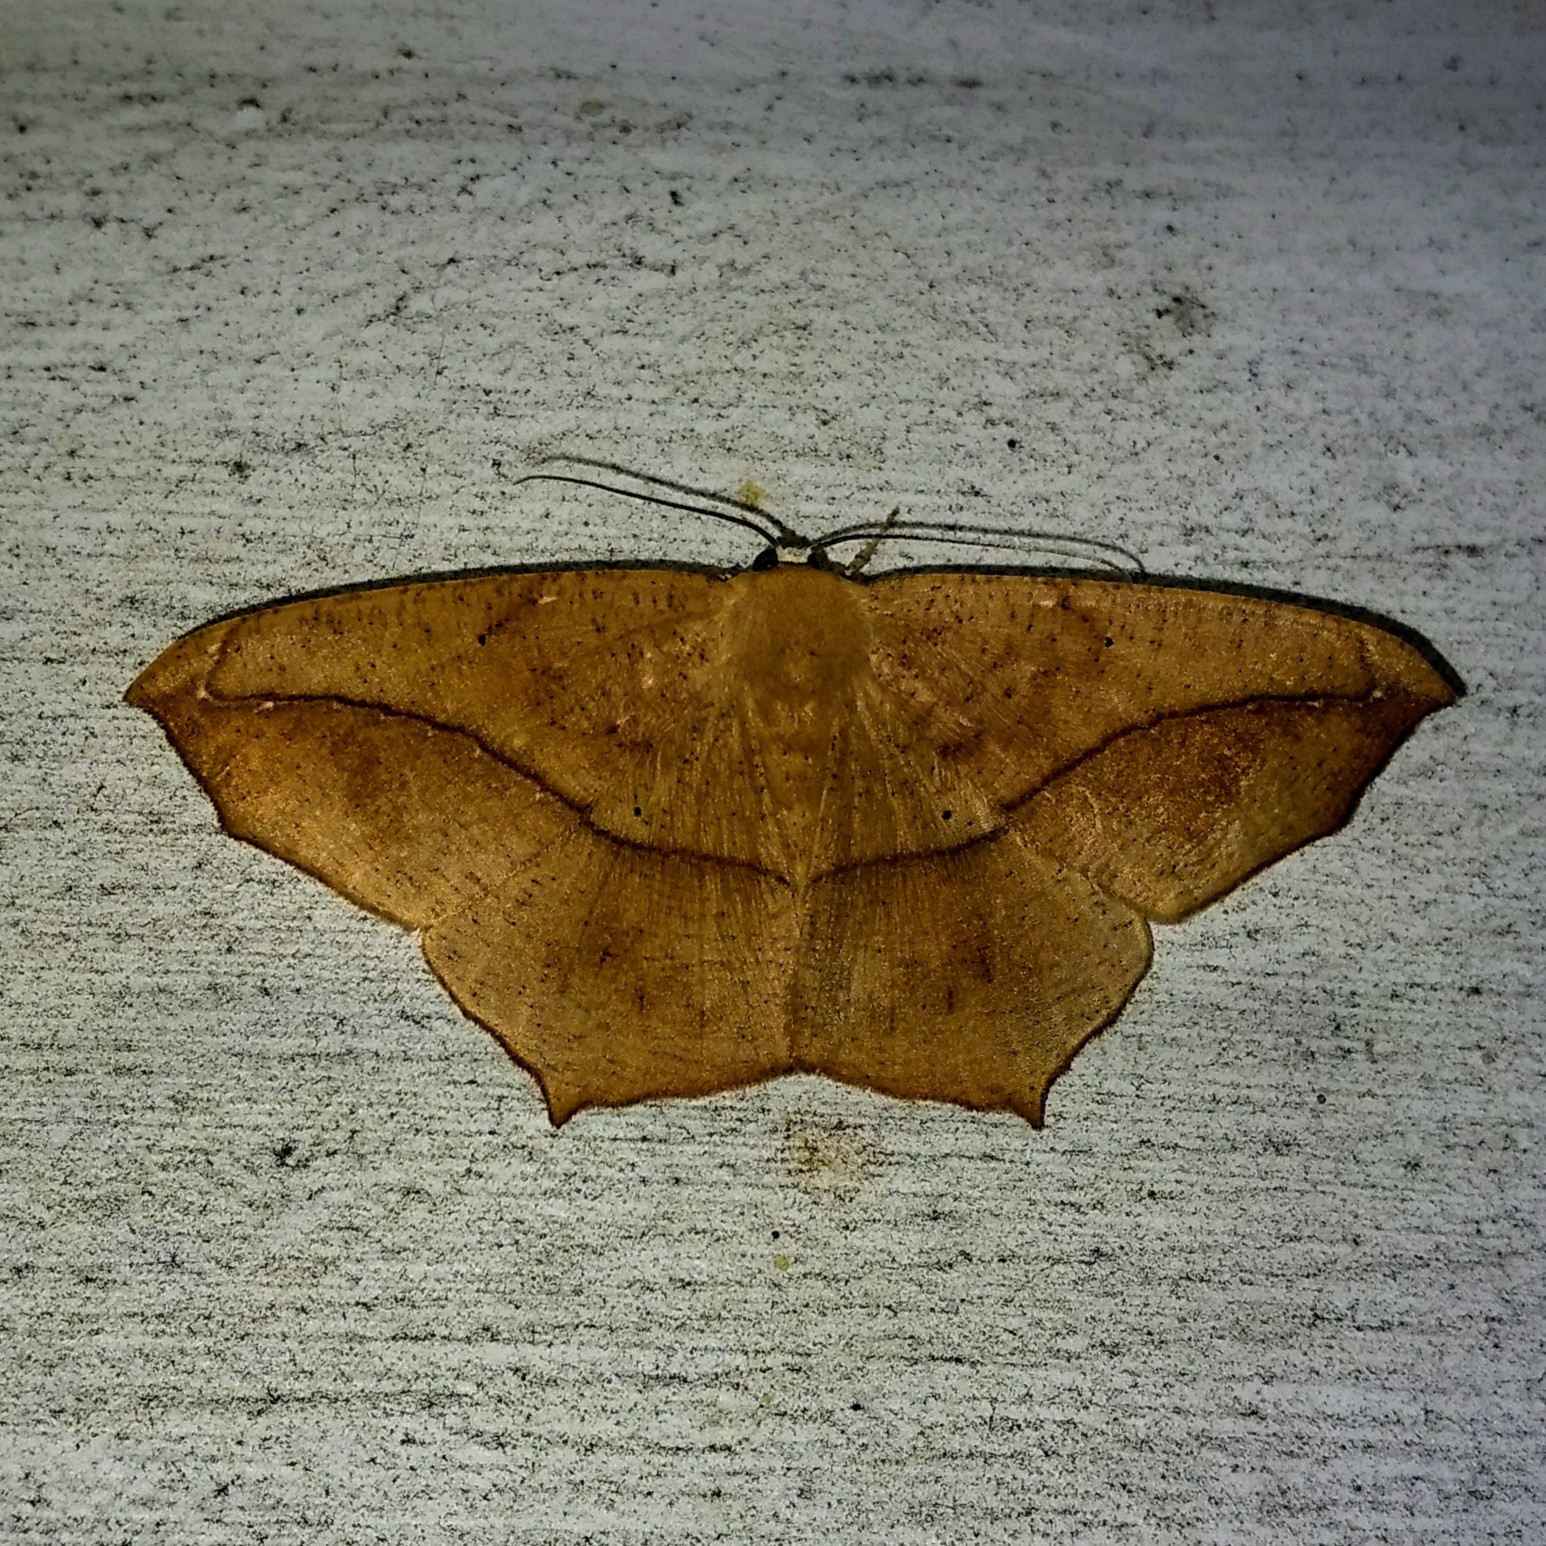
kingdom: Animalia
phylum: Arthropoda
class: Insecta
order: Lepidoptera
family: Geometridae
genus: Prochoerodes
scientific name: Prochoerodes lineola
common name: Large maple spanworm
